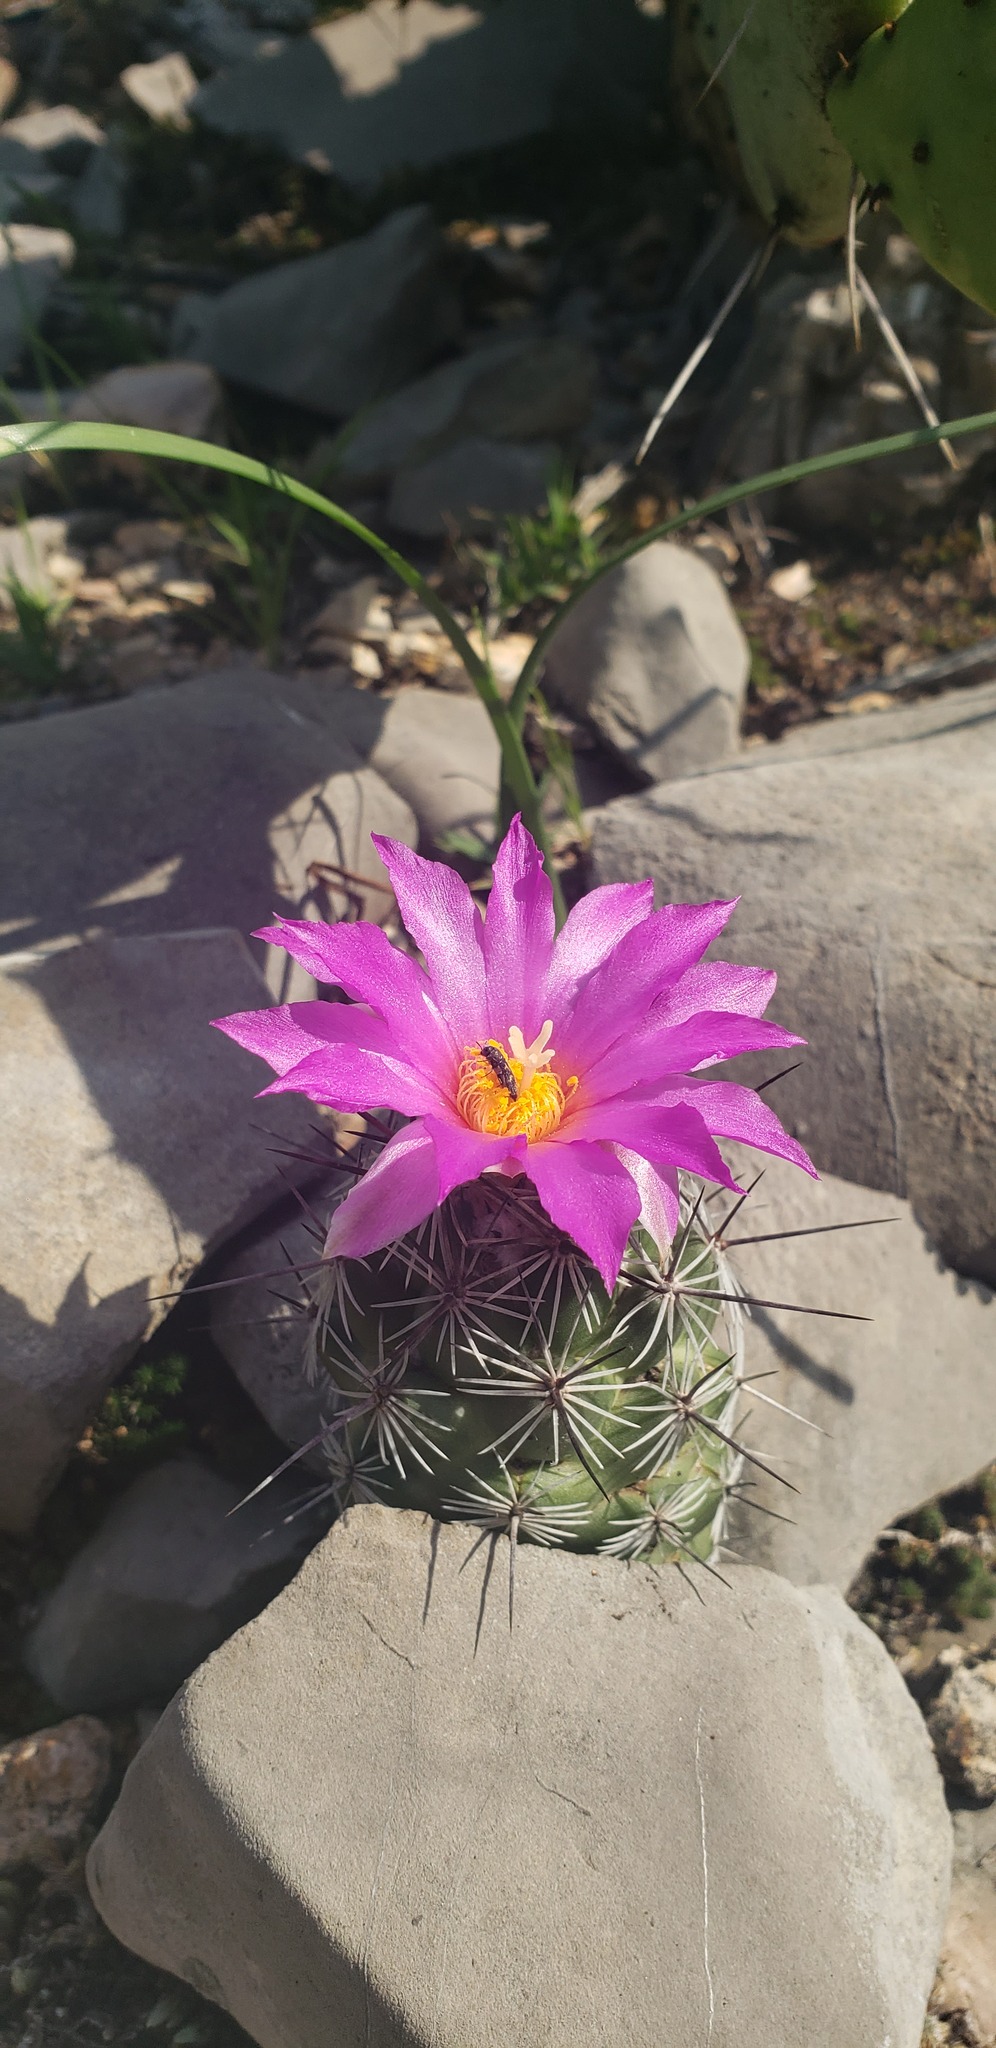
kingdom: Plantae
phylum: Tracheophyta
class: Magnoliopsida
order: Caryophyllales
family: Cactaceae
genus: Cochemiea
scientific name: Cochemiea conoidea
